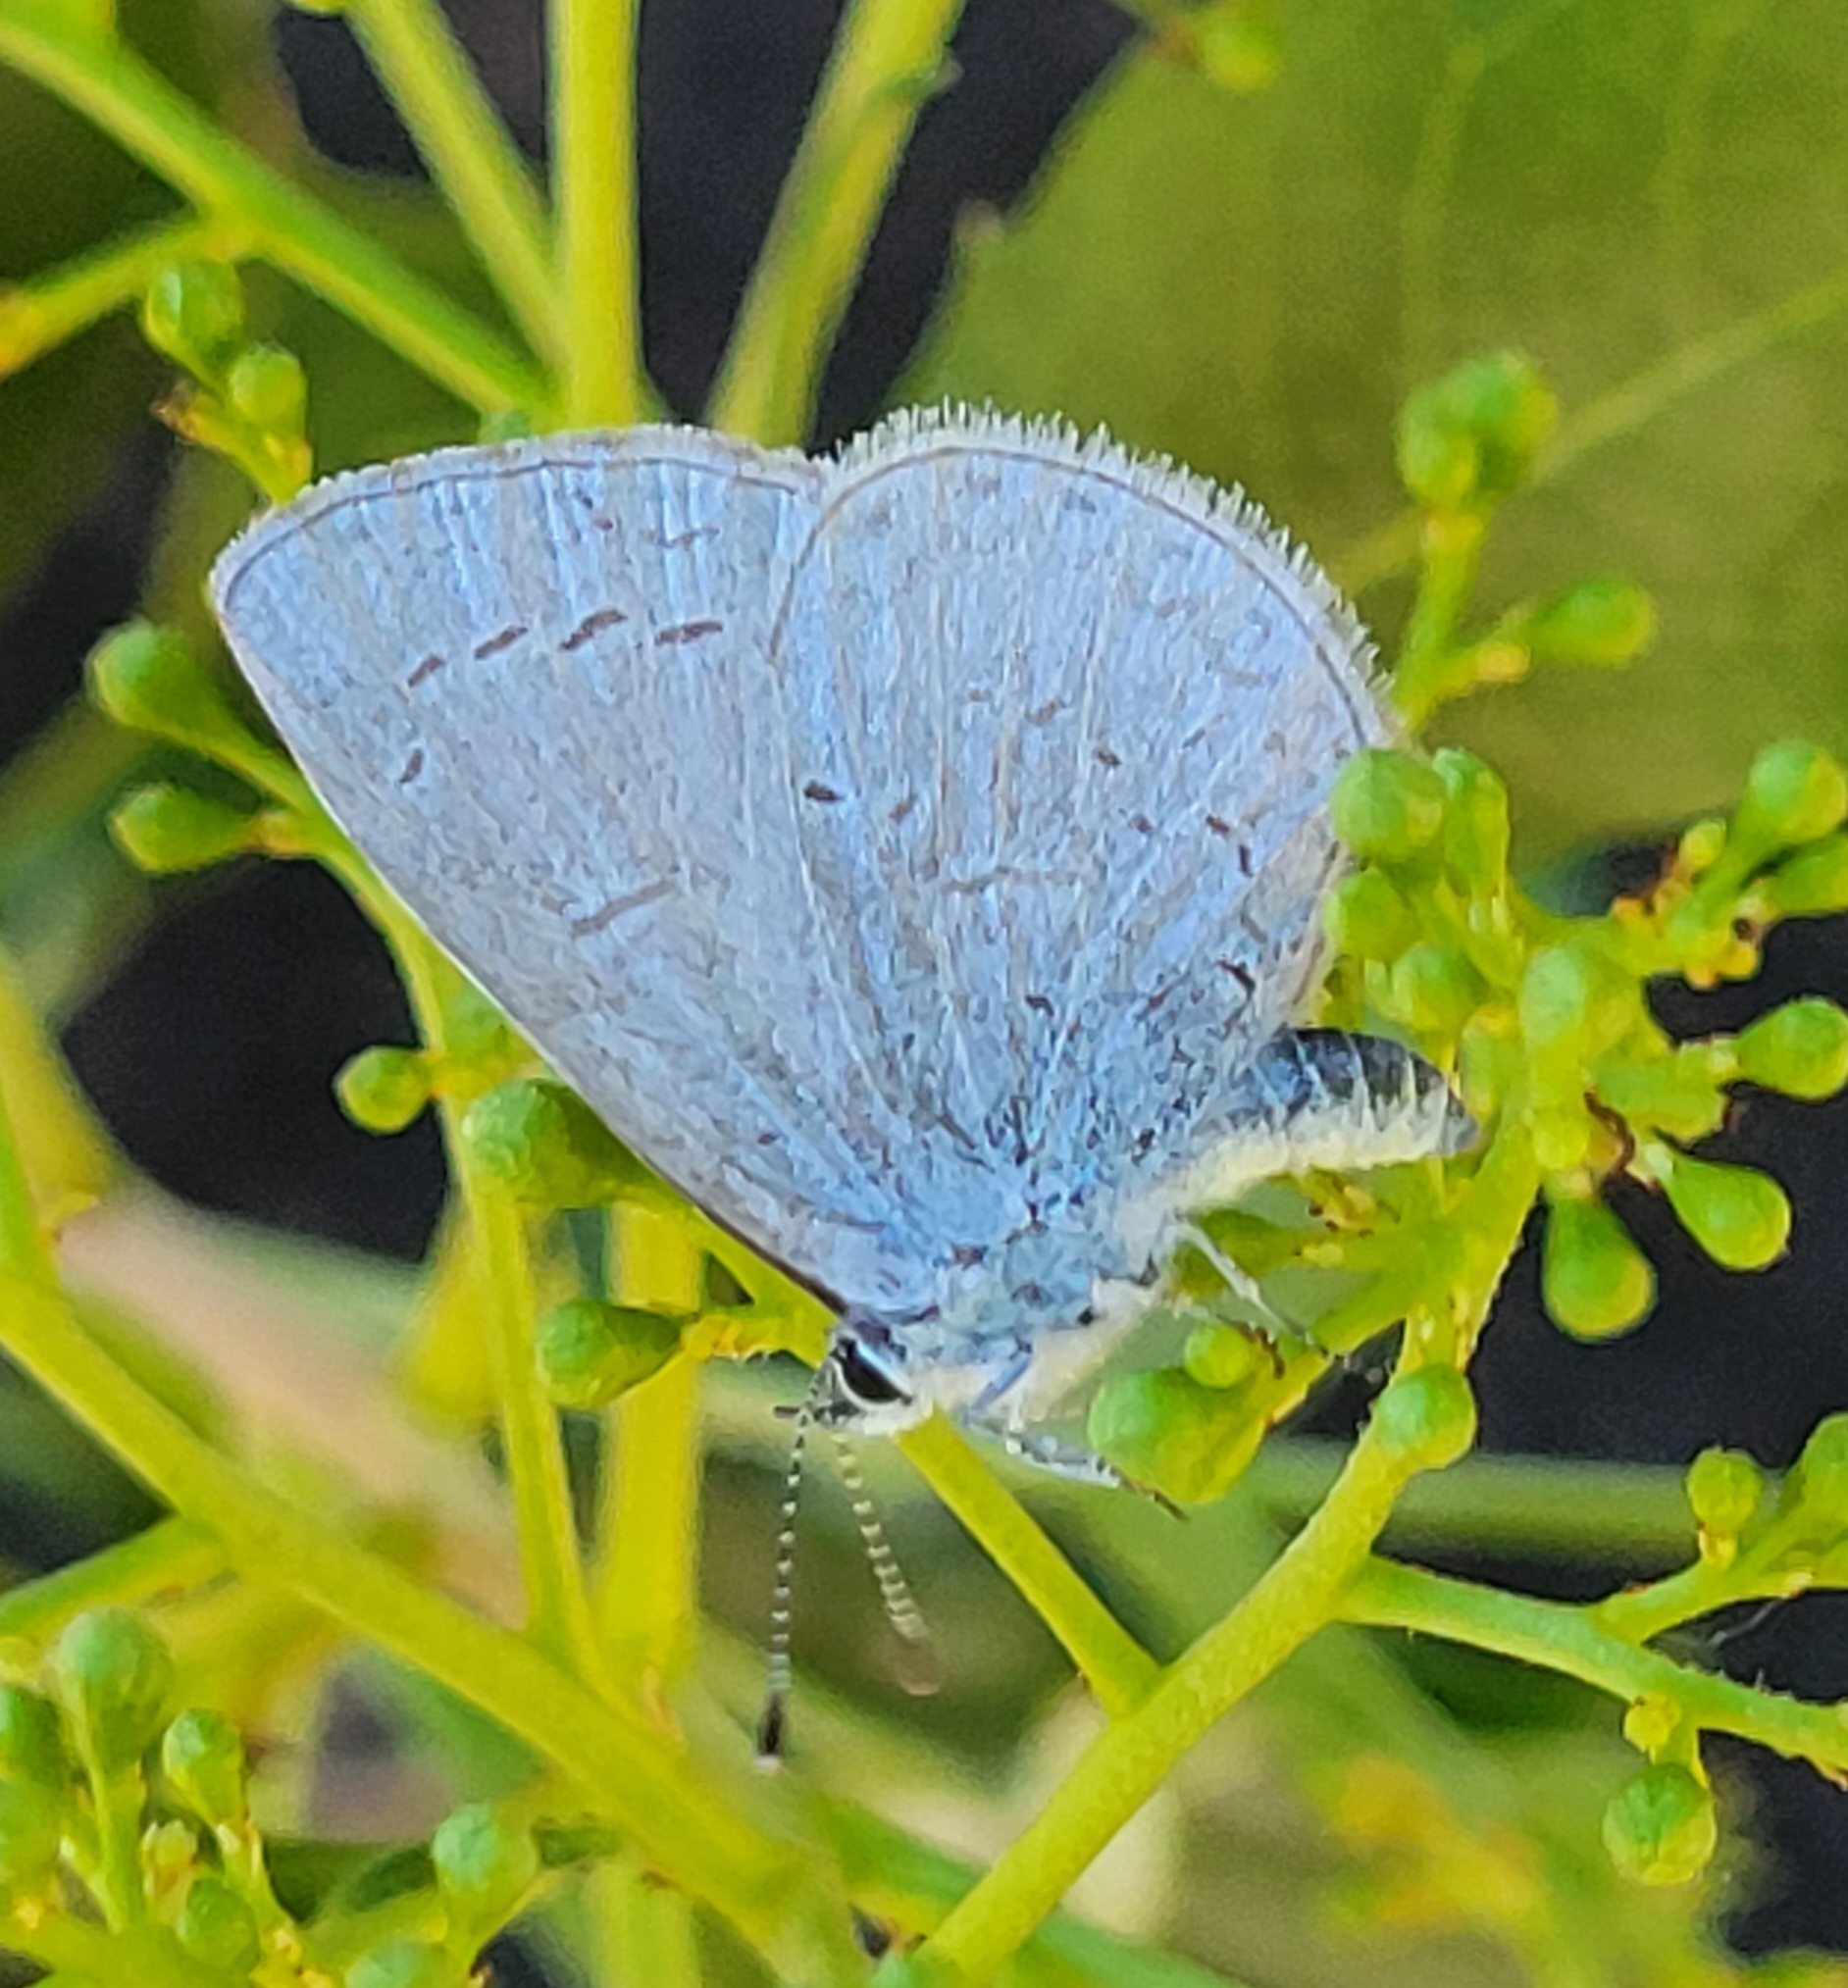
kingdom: Animalia
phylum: Arthropoda
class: Insecta
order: Lepidoptera
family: Lycaenidae
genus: Celastrina
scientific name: Celastrina ladon
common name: Spring azure
